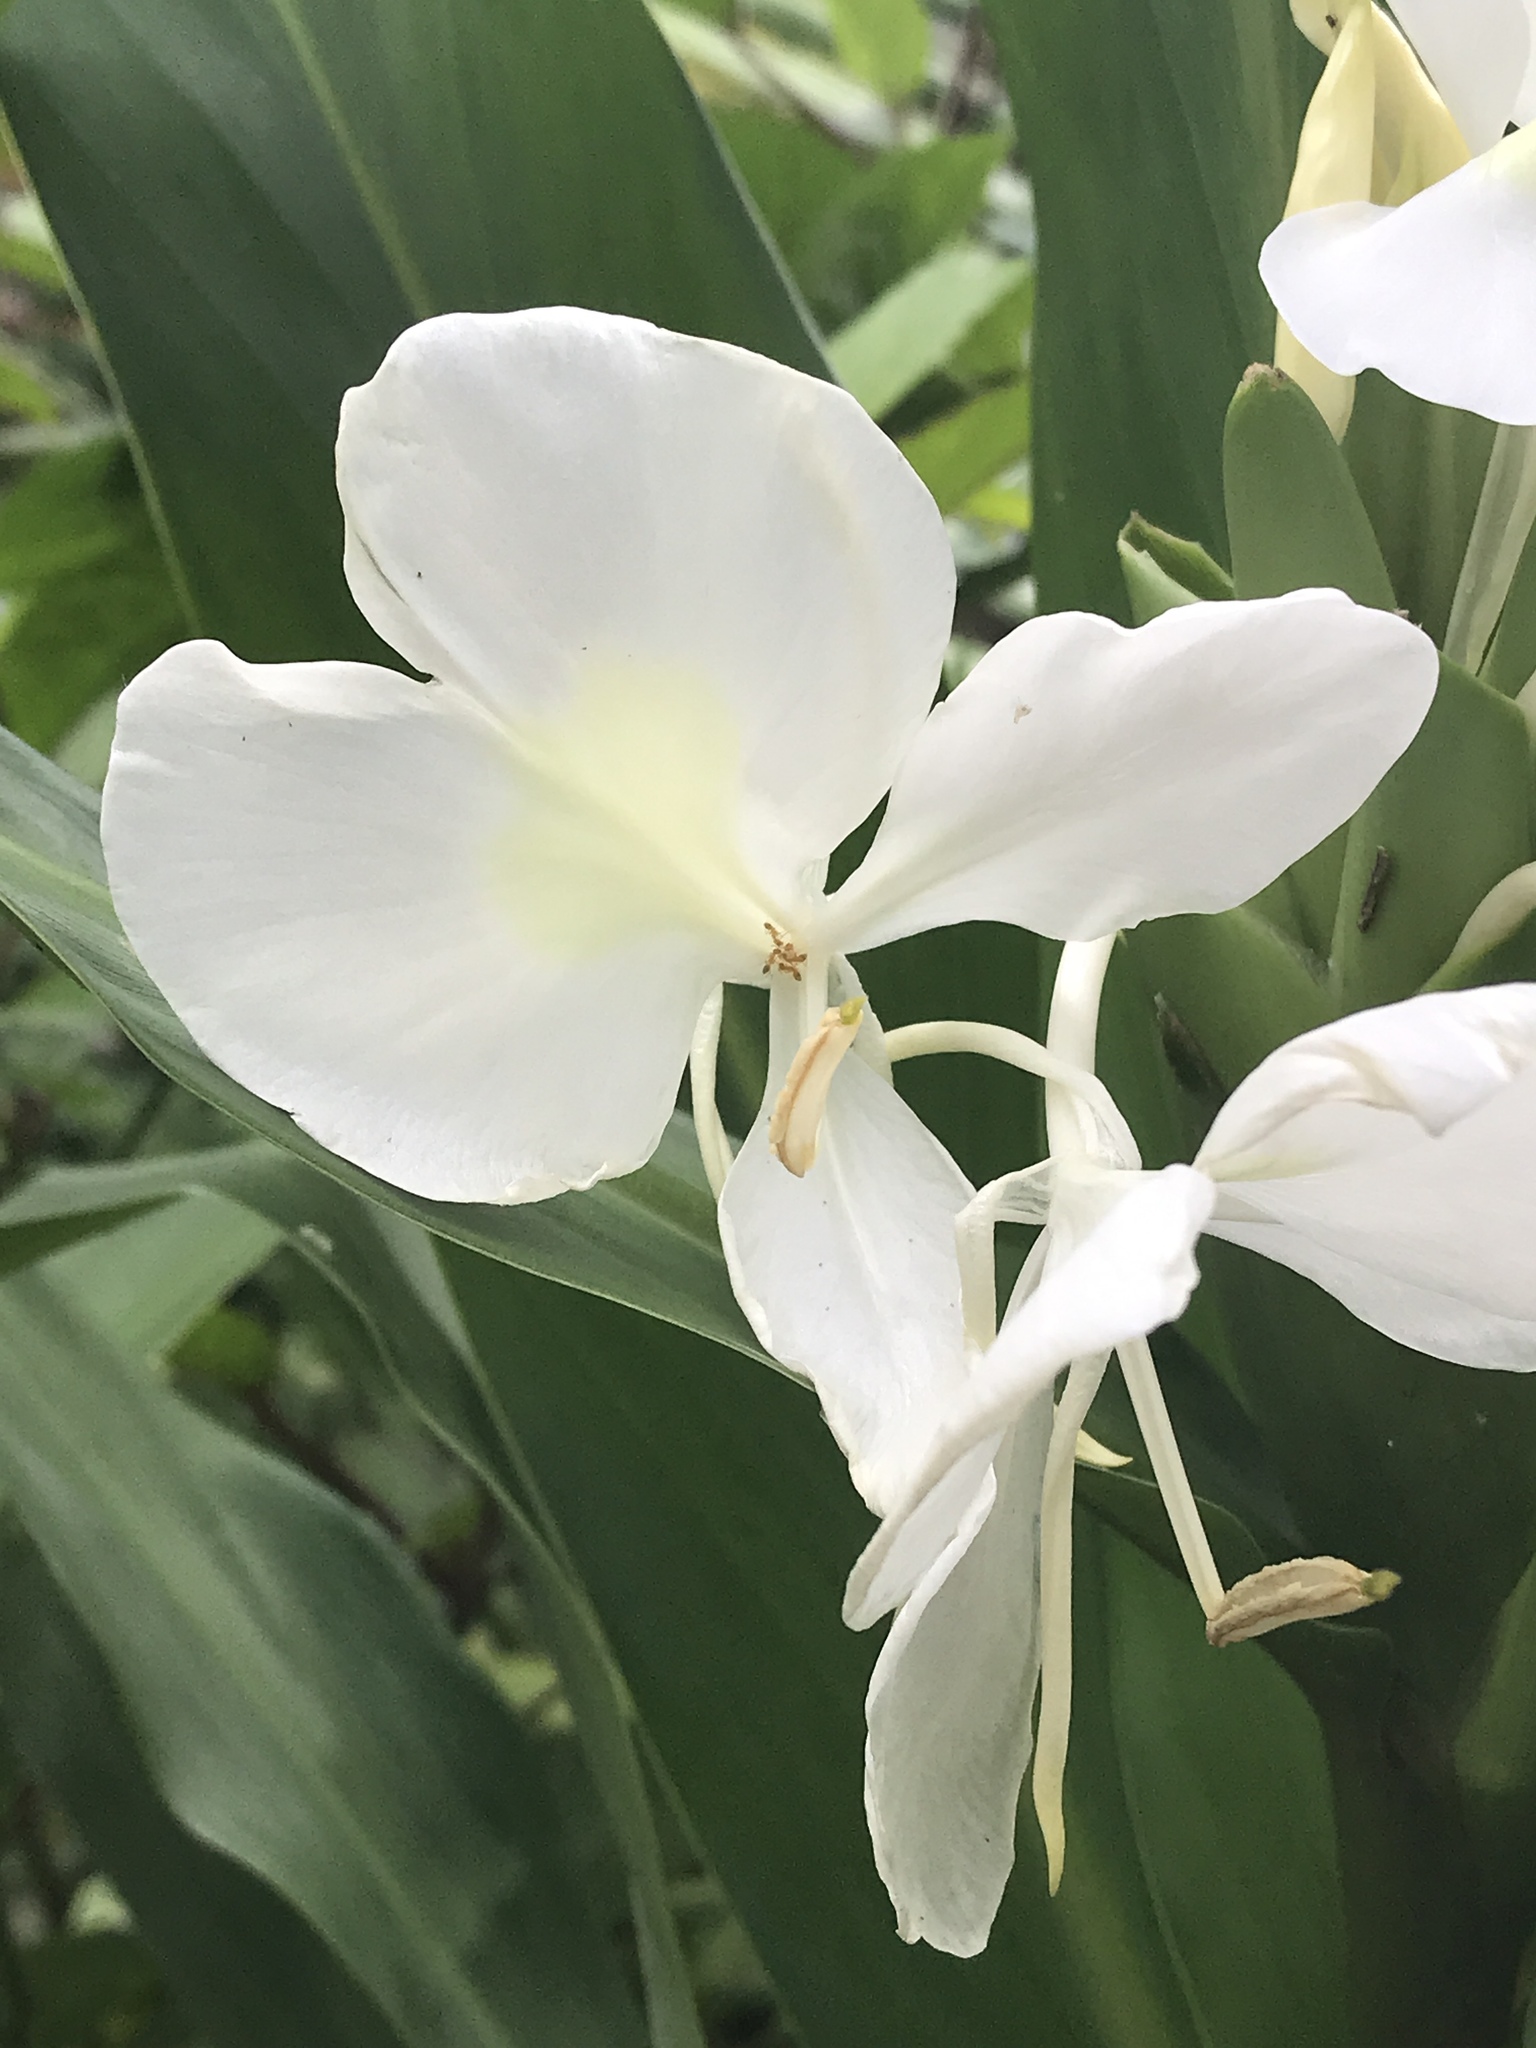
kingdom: Plantae
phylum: Tracheophyta
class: Liliopsida
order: Zingiberales
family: Zingiberaceae
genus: Hedychium
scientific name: Hedychium coronarium
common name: White garland-lily
